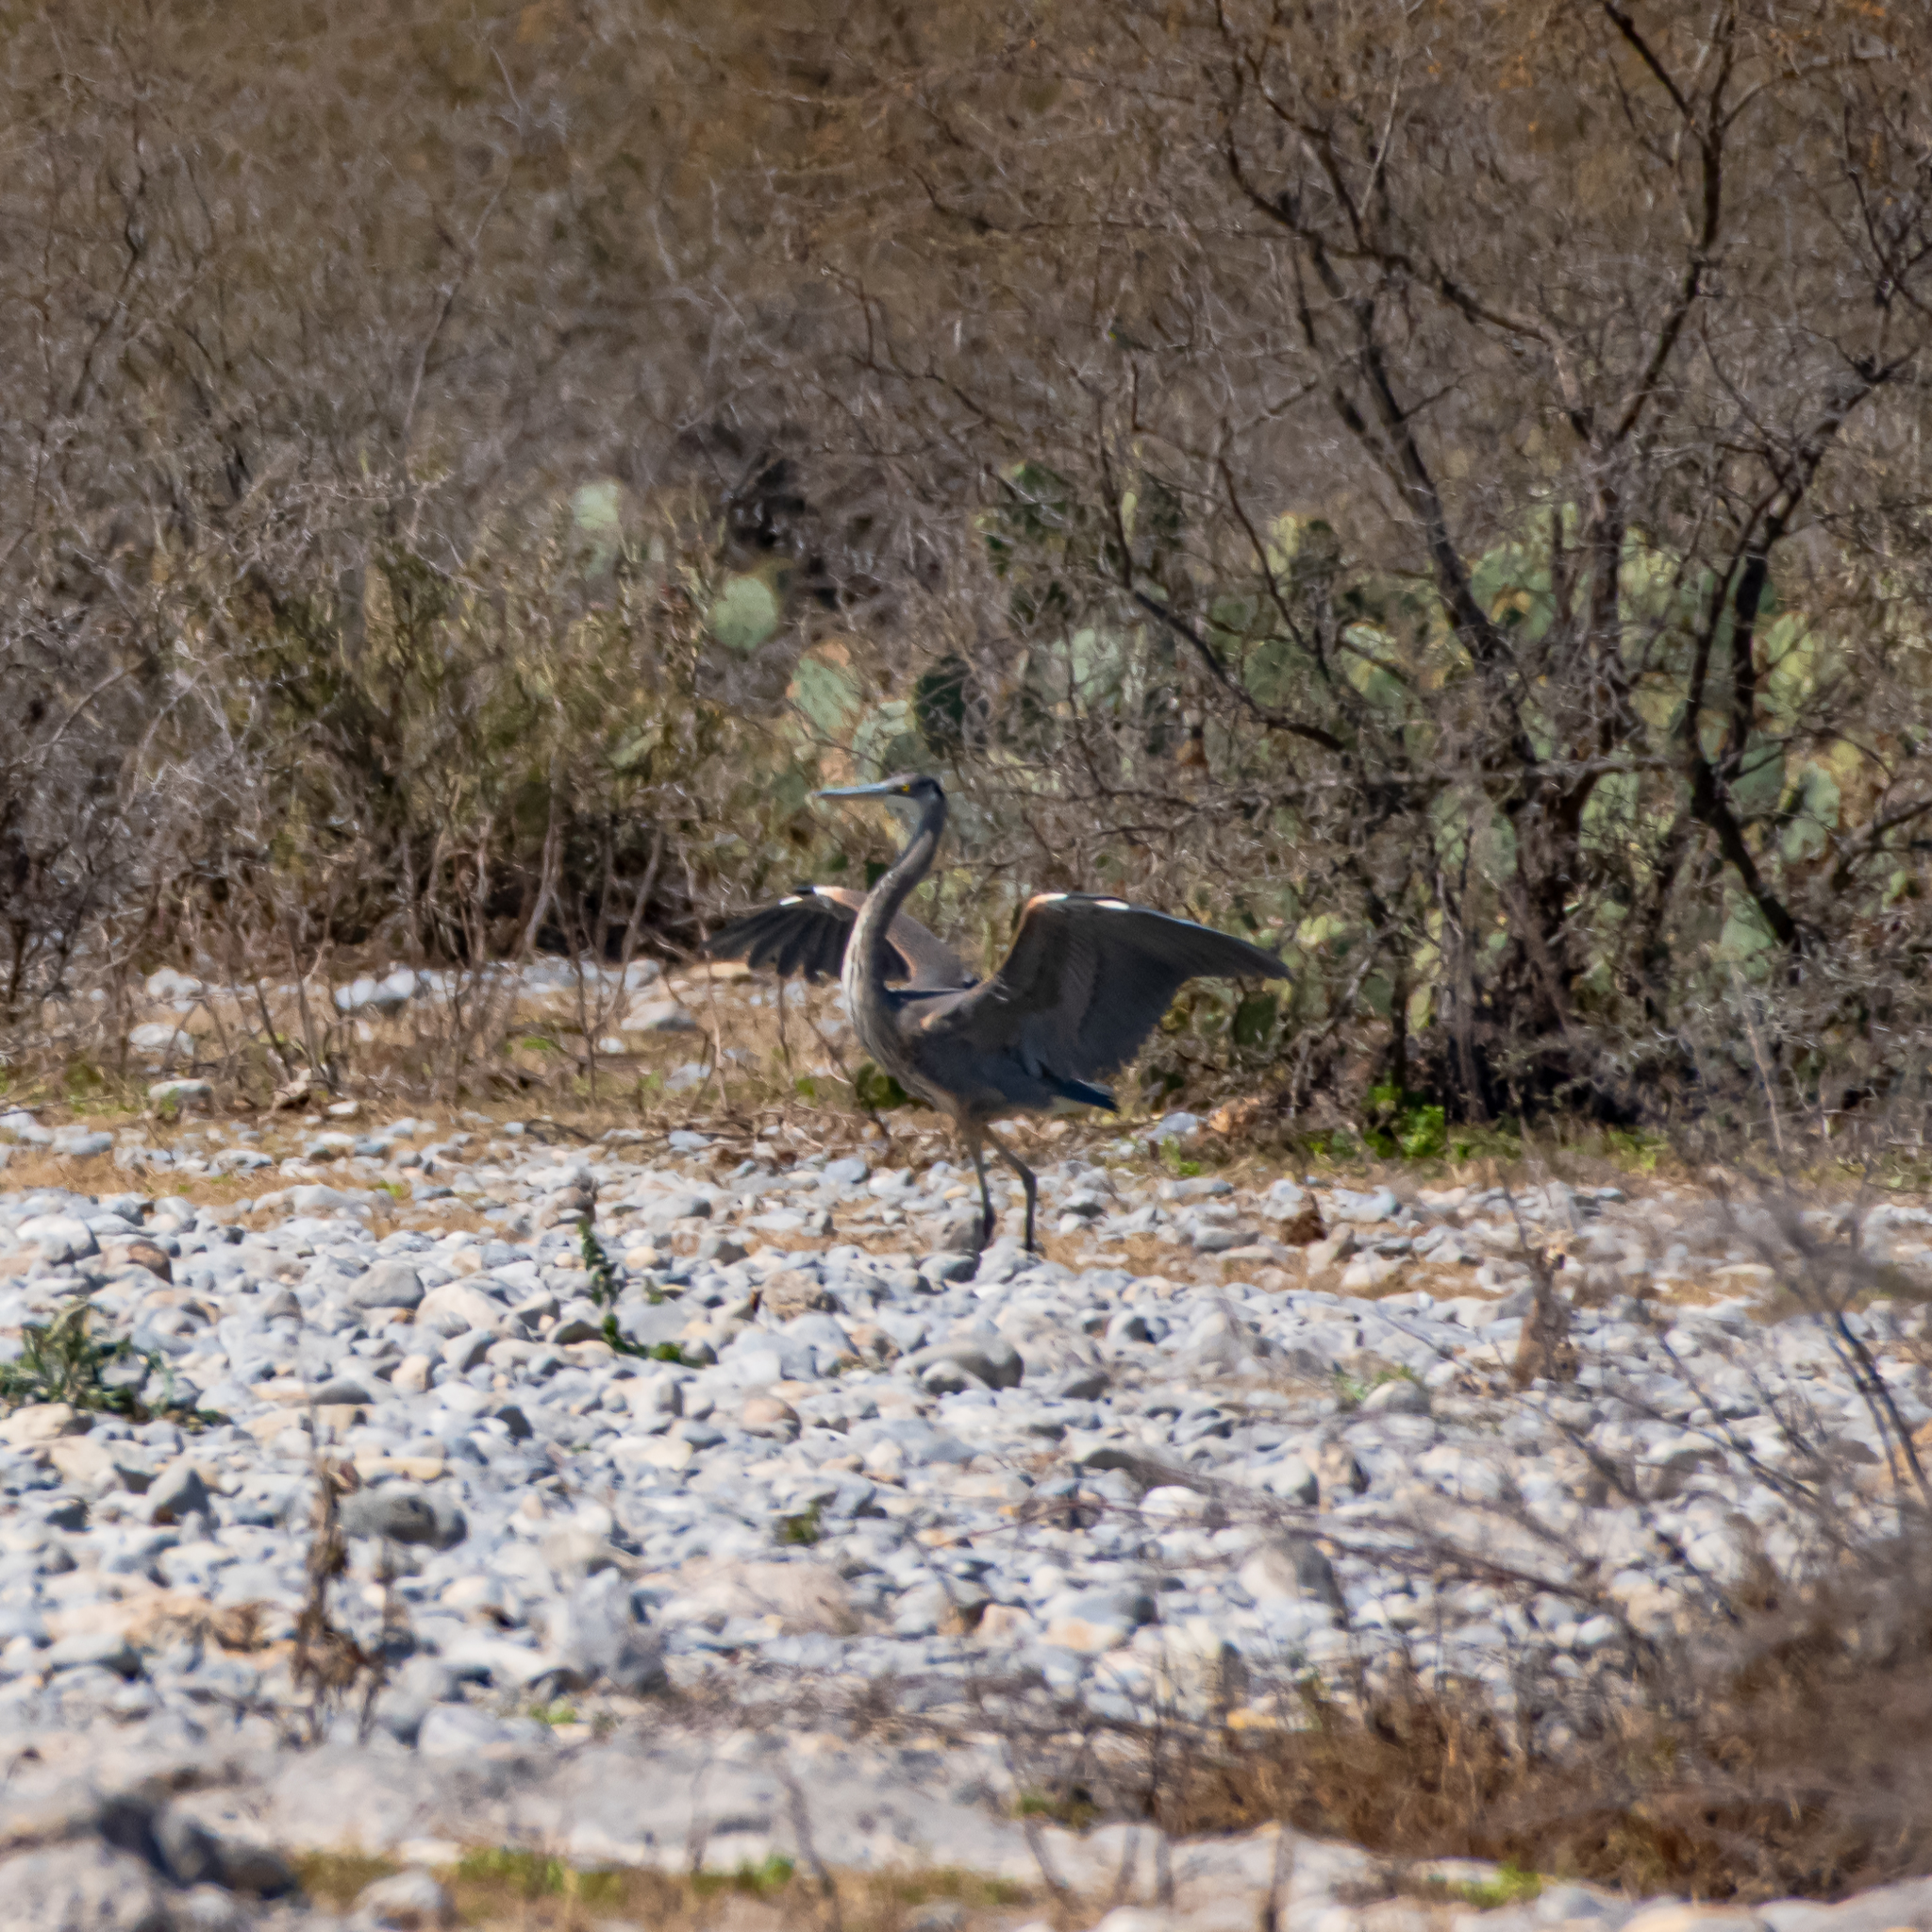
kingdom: Animalia
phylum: Chordata
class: Aves
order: Pelecaniformes
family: Ardeidae
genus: Ardea
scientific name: Ardea herodias
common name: Great blue heron
